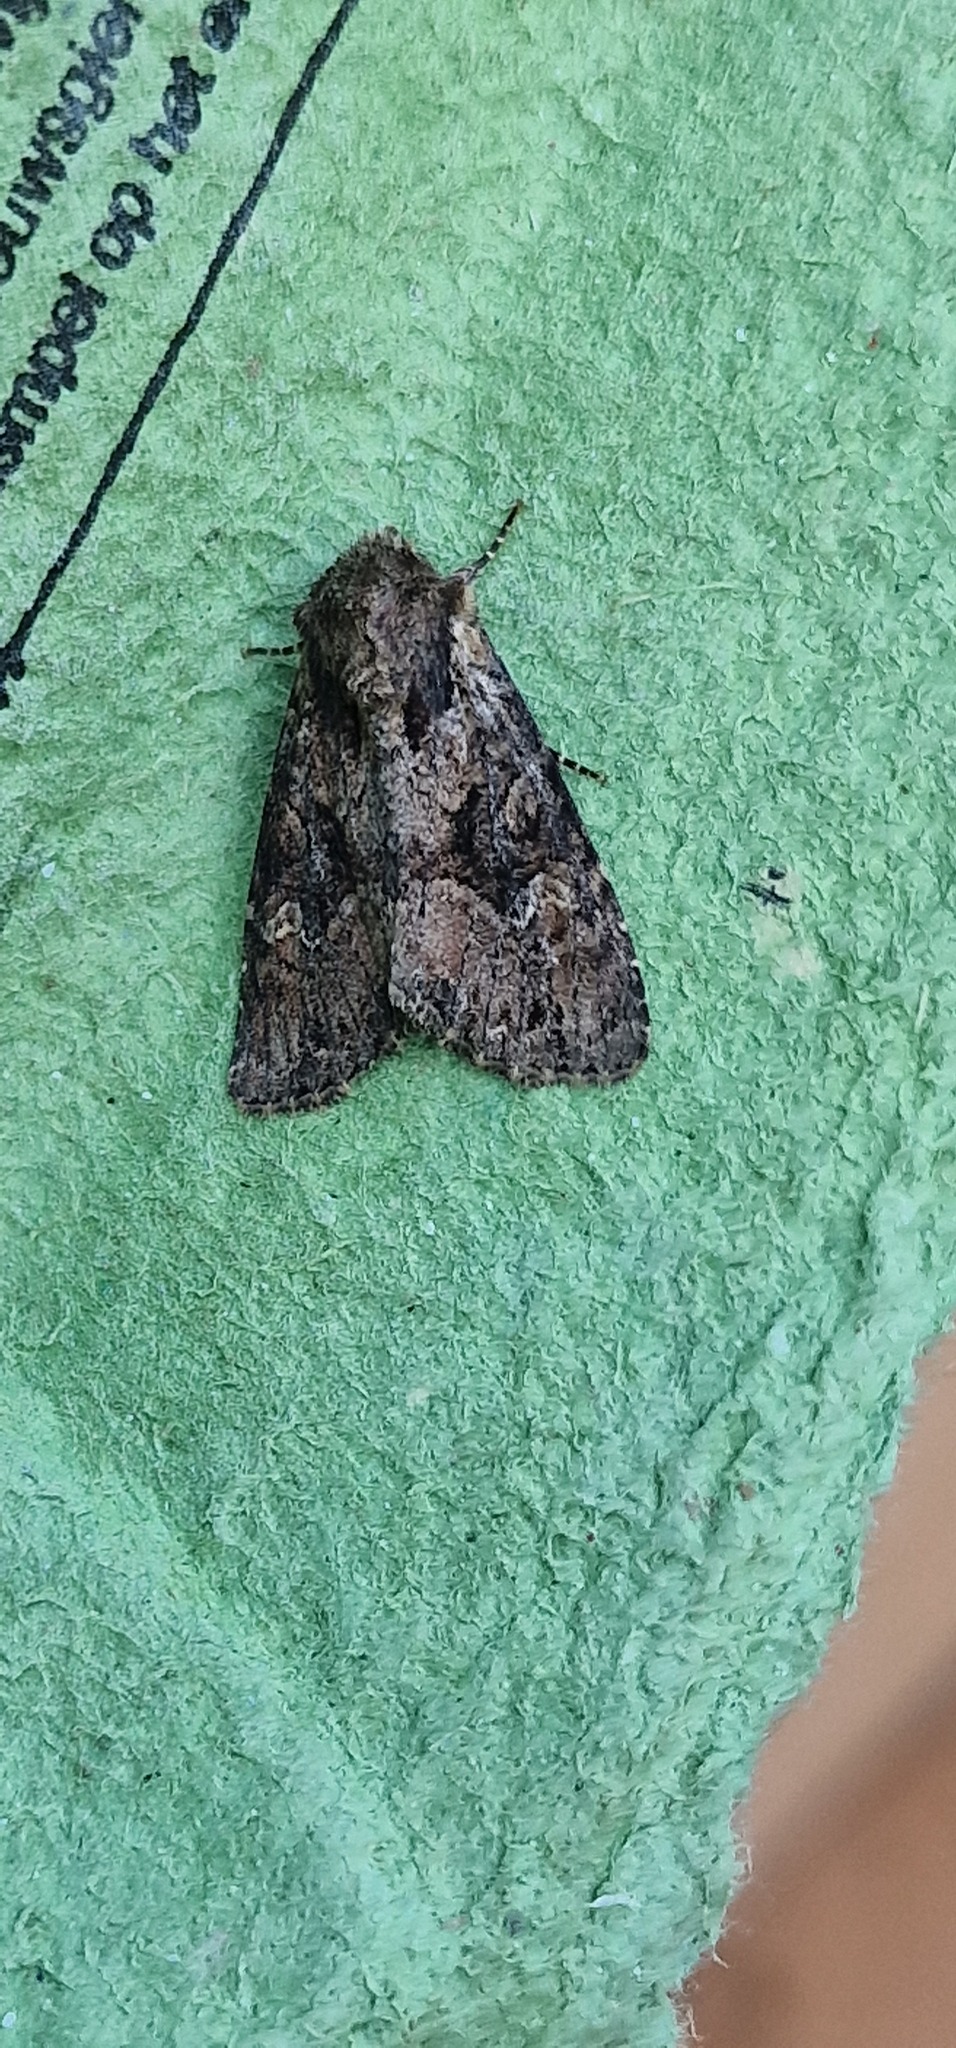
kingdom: Animalia
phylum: Arthropoda
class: Insecta
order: Lepidoptera
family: Noctuidae
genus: Apamea
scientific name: Apamea unanimis
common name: Small clouded brindle
